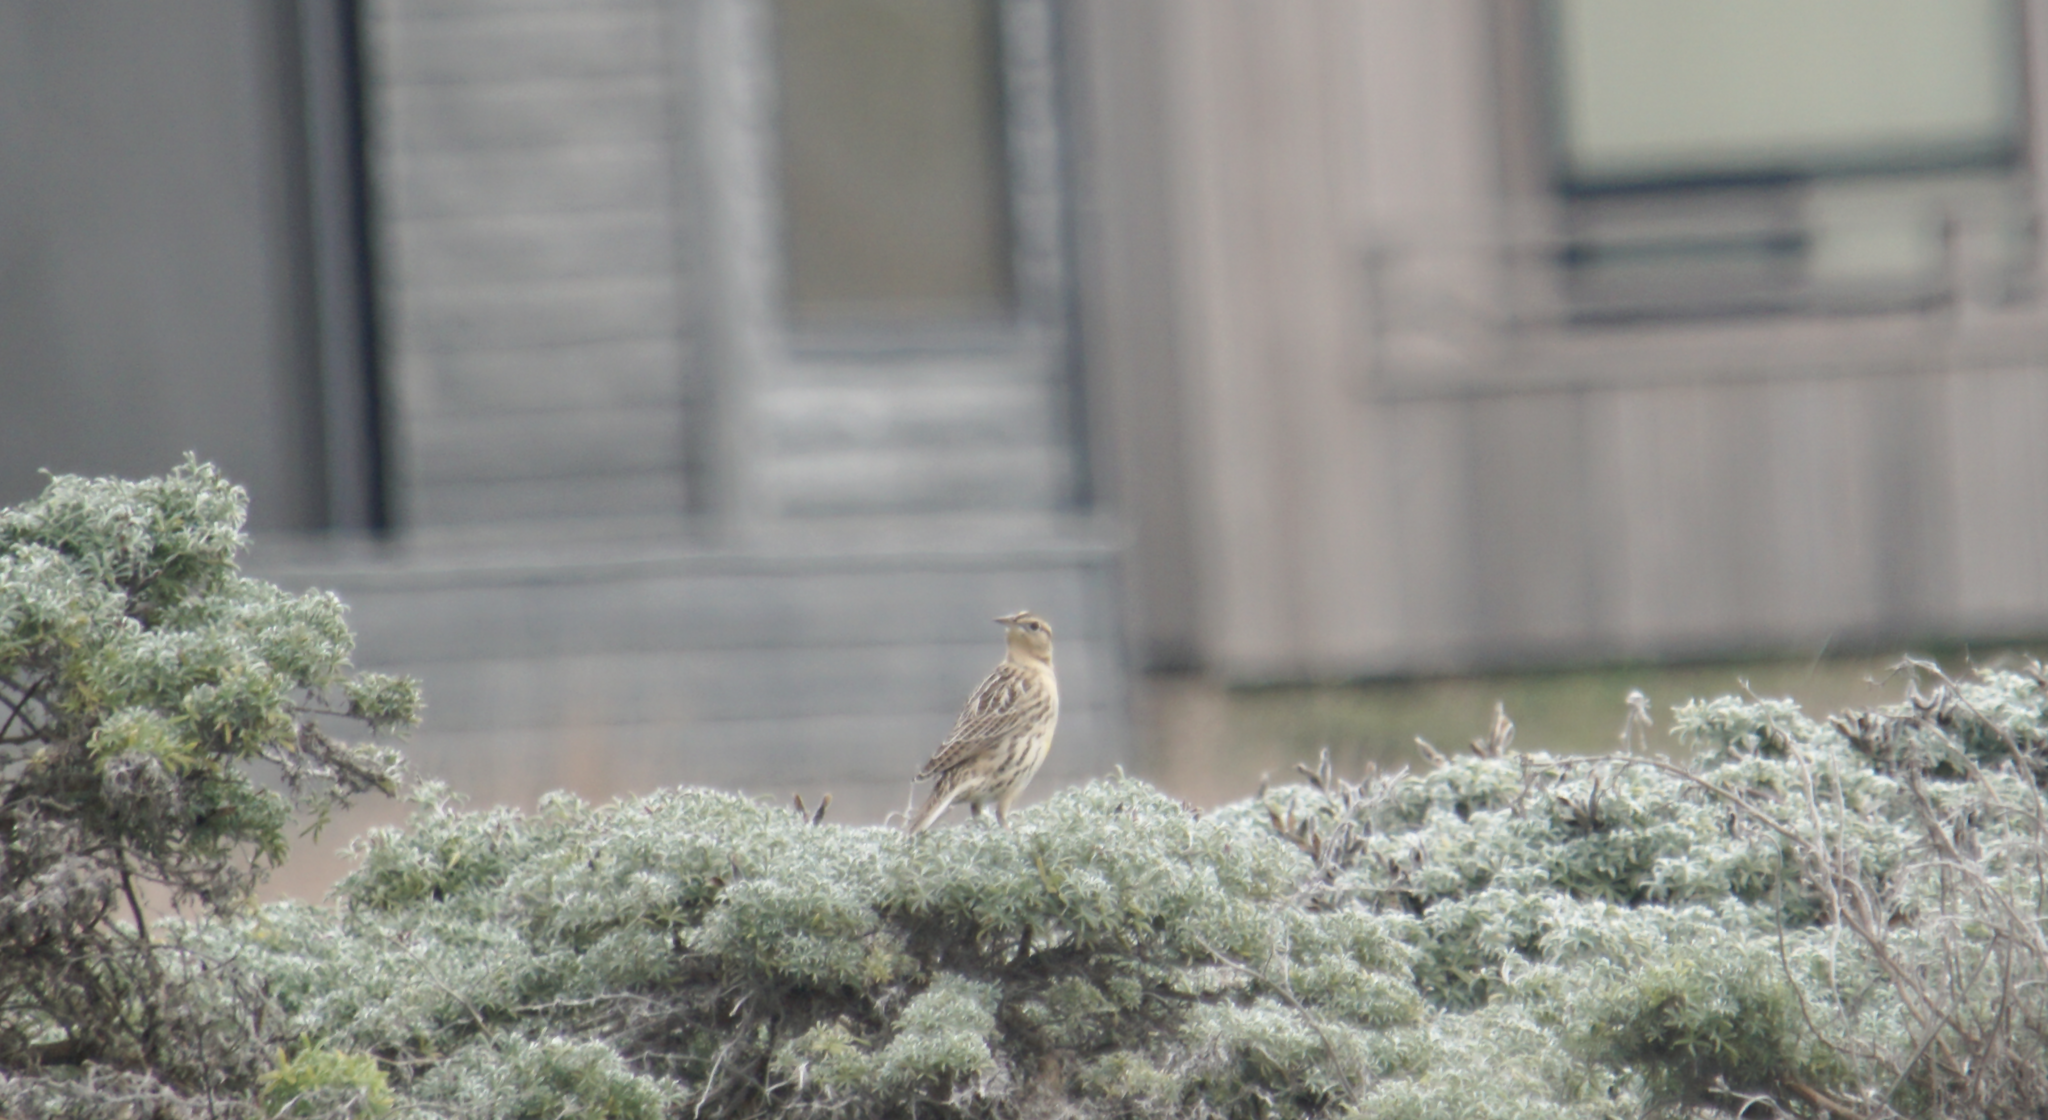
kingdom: Animalia
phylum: Chordata
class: Aves
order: Passeriformes
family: Icteridae
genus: Sturnella
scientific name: Sturnella neglecta
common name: Western meadowlark
